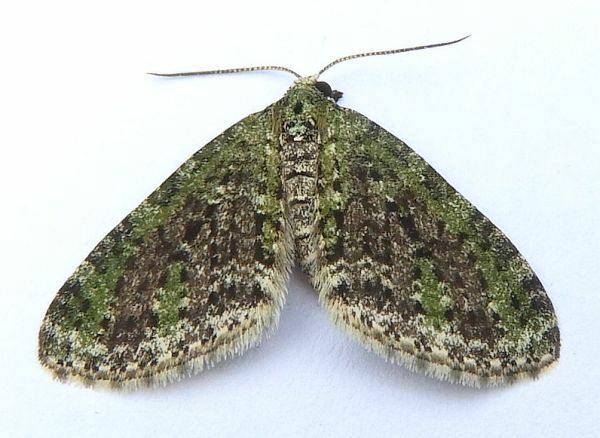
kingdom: Animalia
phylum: Arthropoda
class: Insecta
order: Lepidoptera
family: Geometridae
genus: Acasis
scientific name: Acasis viridata
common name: Olive-and-black carpet moth
